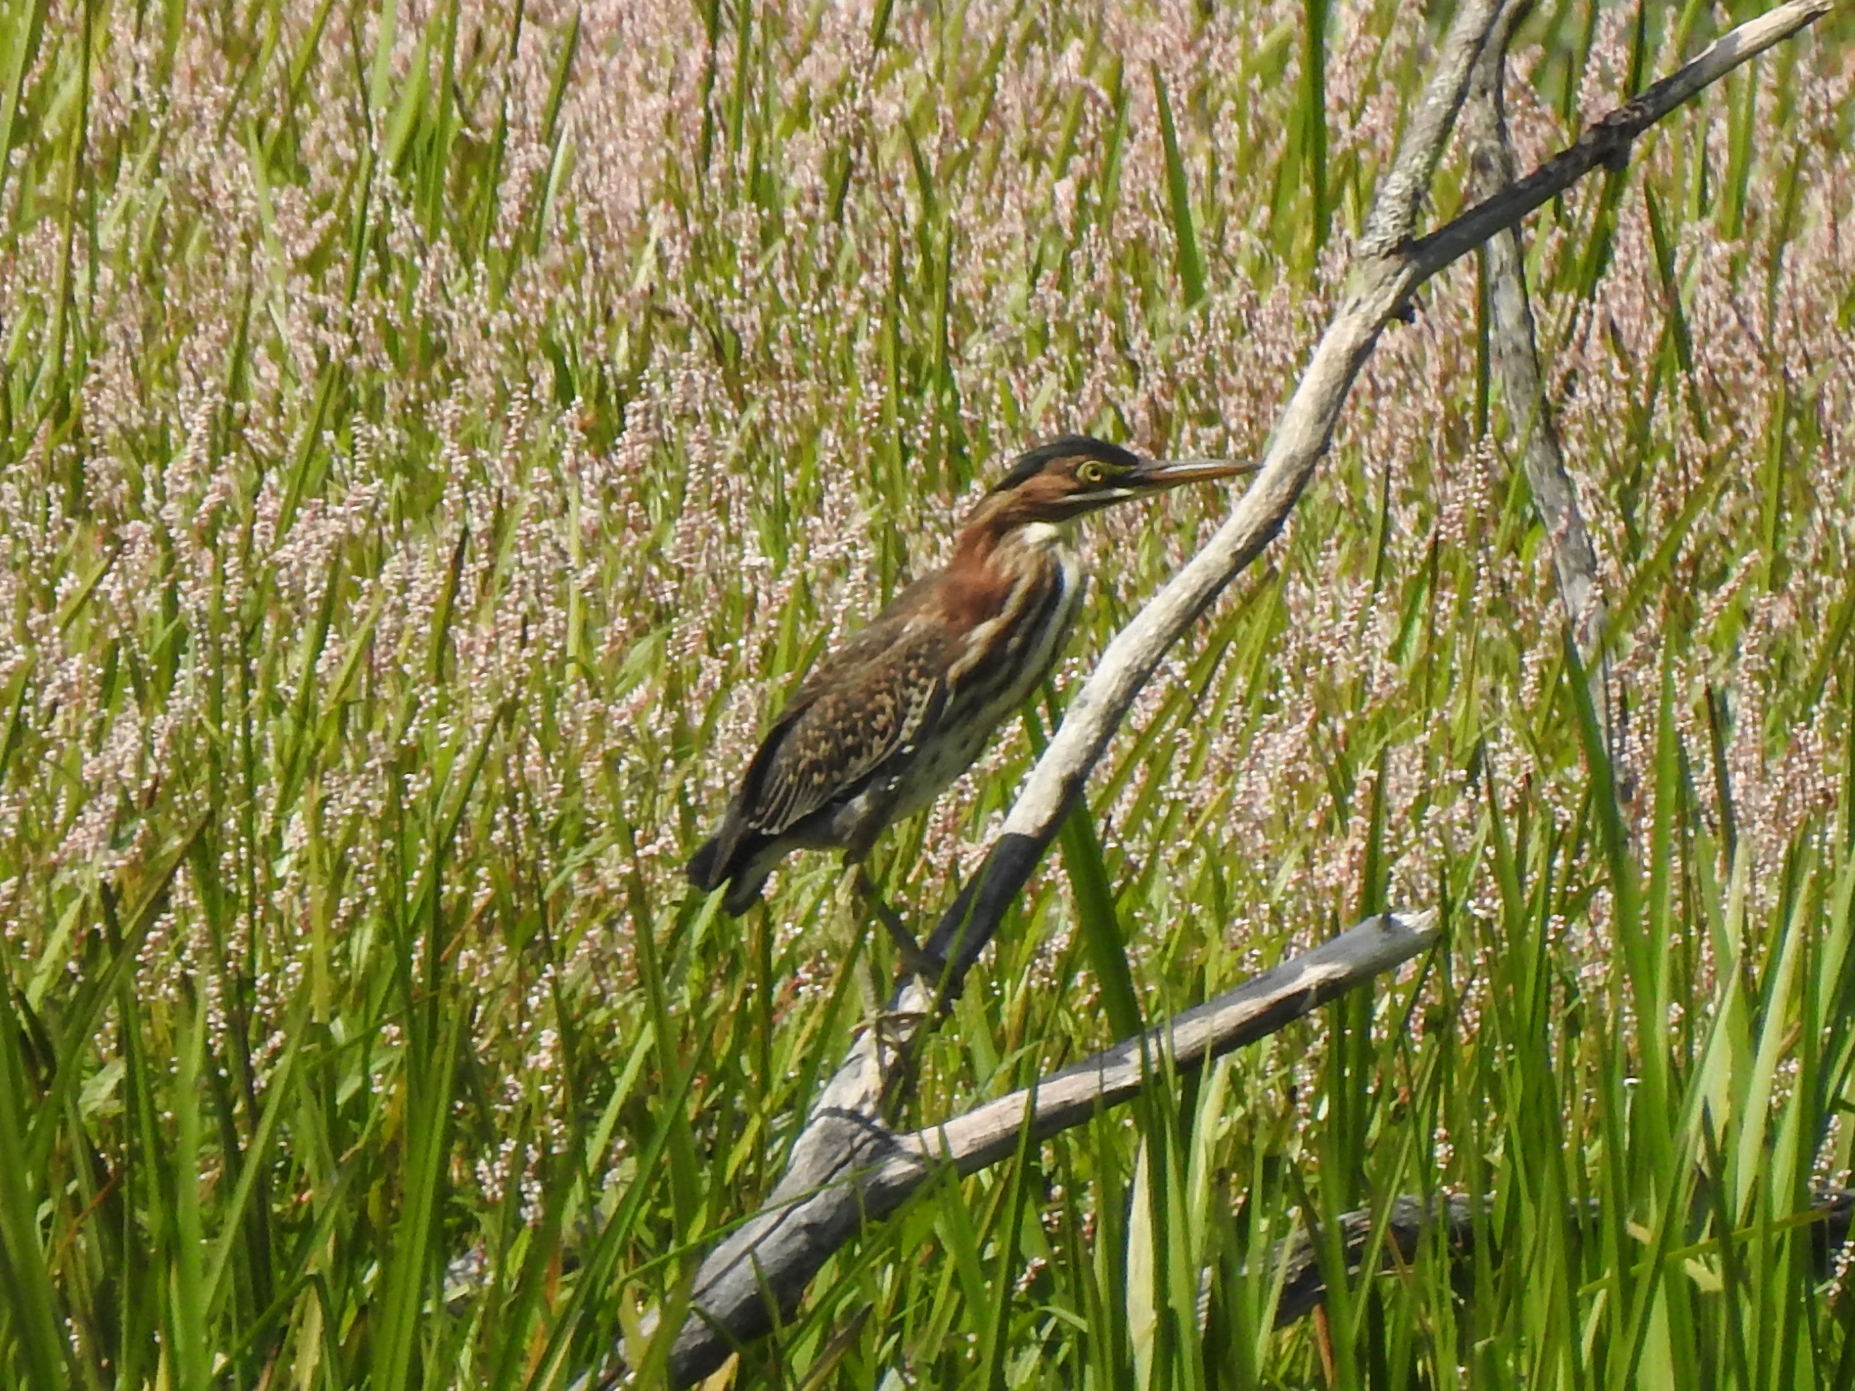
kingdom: Animalia
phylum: Chordata
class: Aves
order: Pelecaniformes
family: Ardeidae
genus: Butorides
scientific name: Butorides virescens
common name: Green heron
